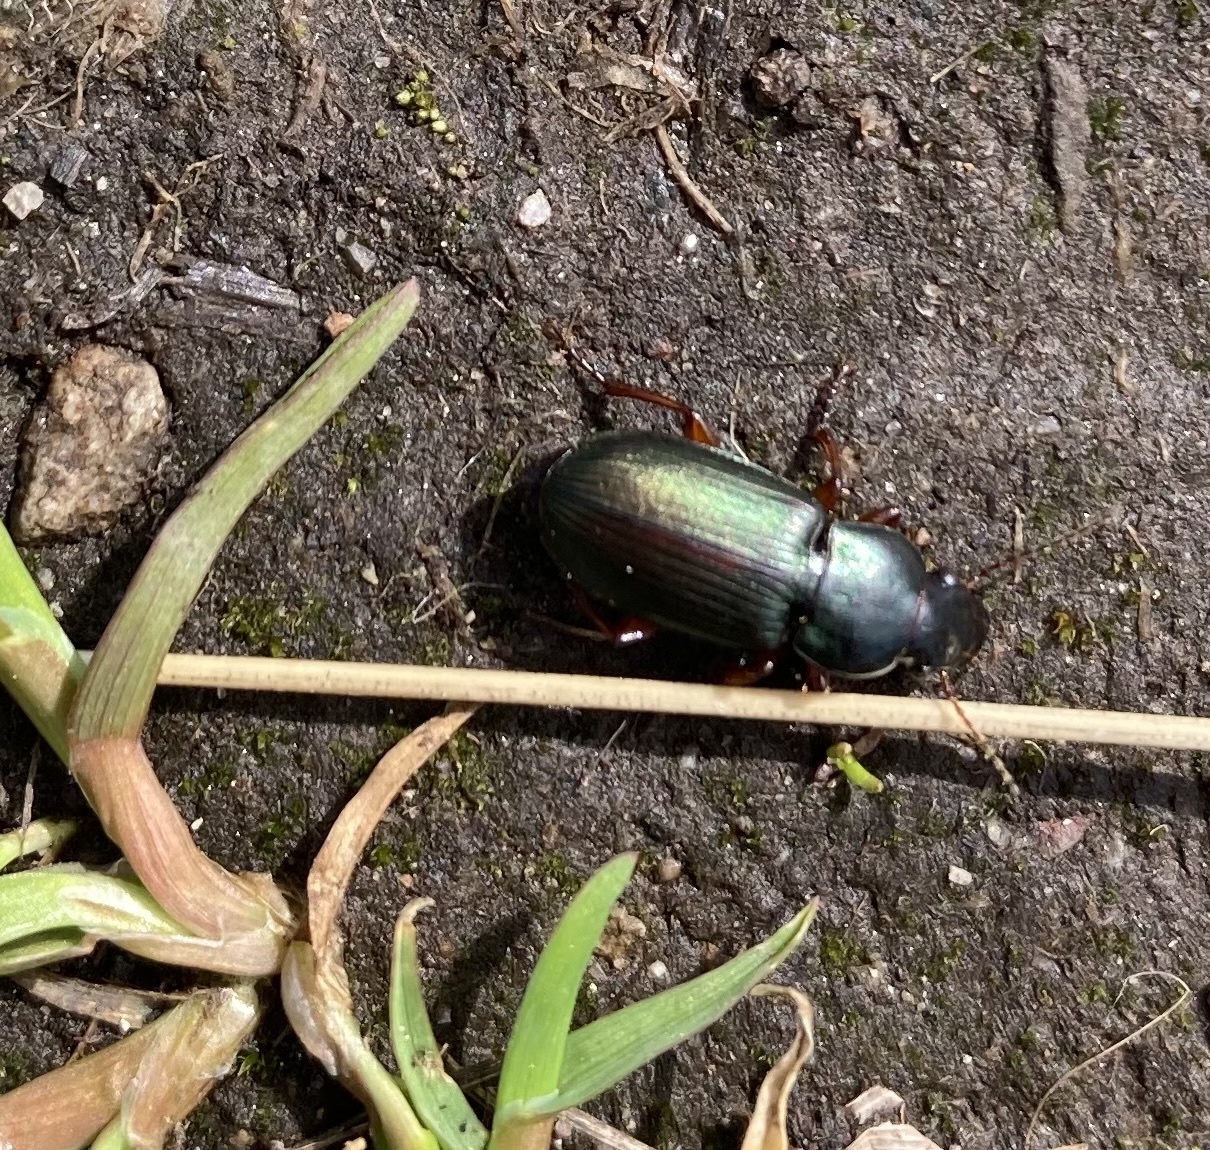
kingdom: Animalia
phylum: Arthropoda
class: Insecta
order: Coleoptera
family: Carabidae
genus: Harpalus
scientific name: Harpalus affinis
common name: Polychrome harp ground beetle
